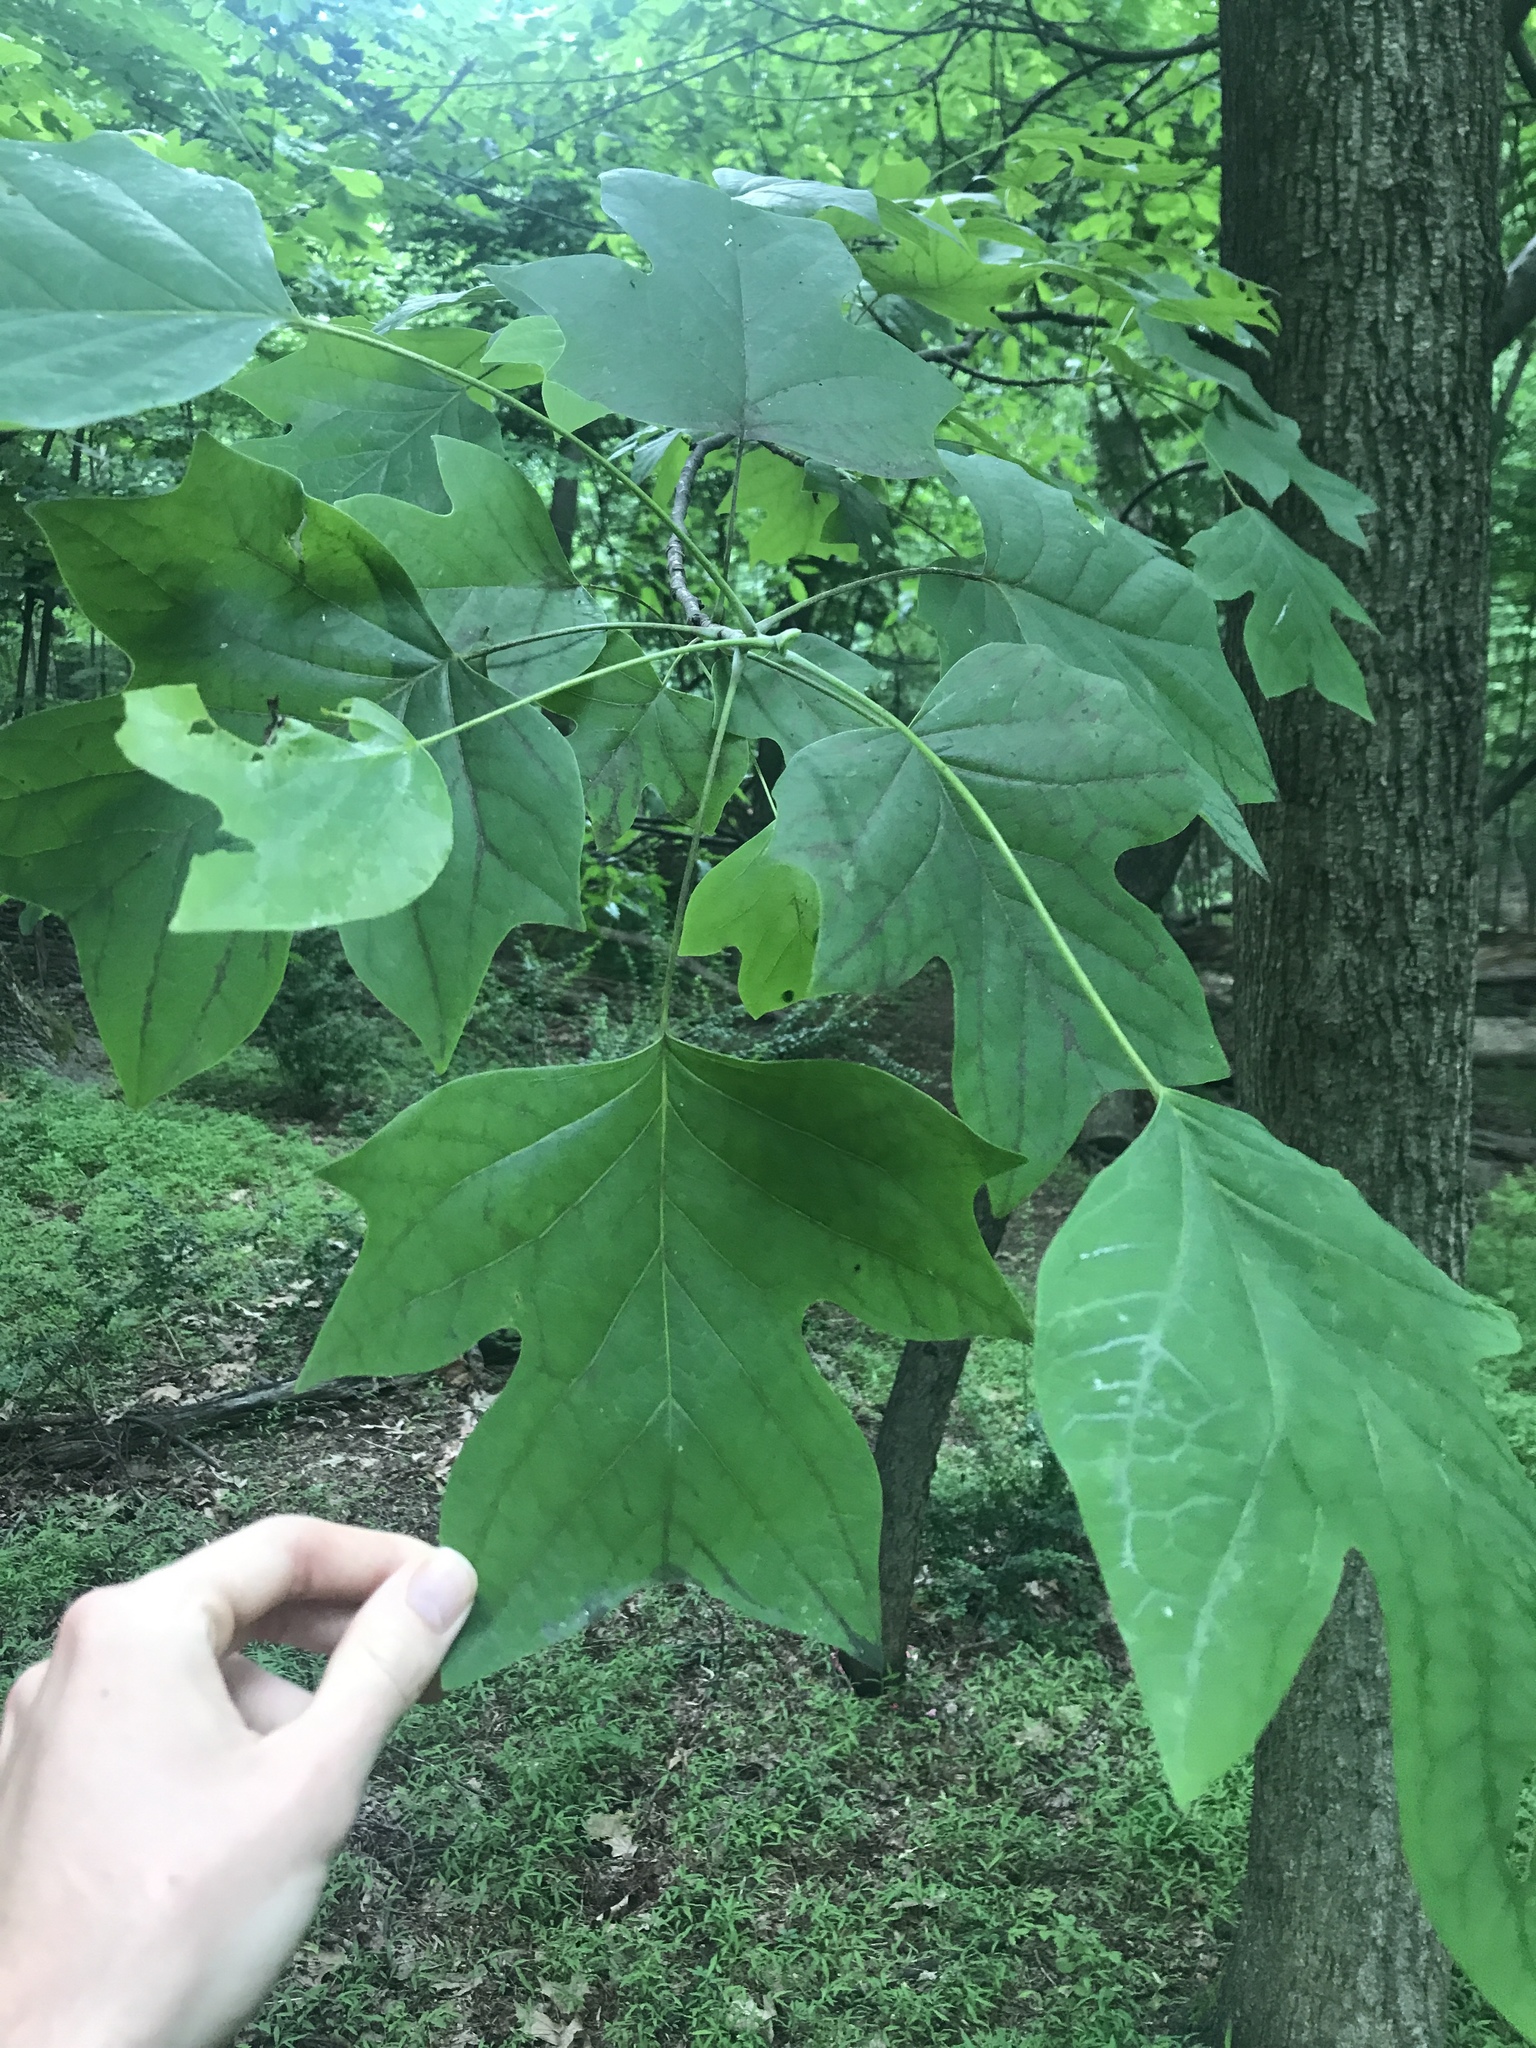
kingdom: Plantae
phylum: Tracheophyta
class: Magnoliopsida
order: Magnoliales
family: Magnoliaceae
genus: Liriodendron
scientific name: Liriodendron tulipifera
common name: Tulip tree
